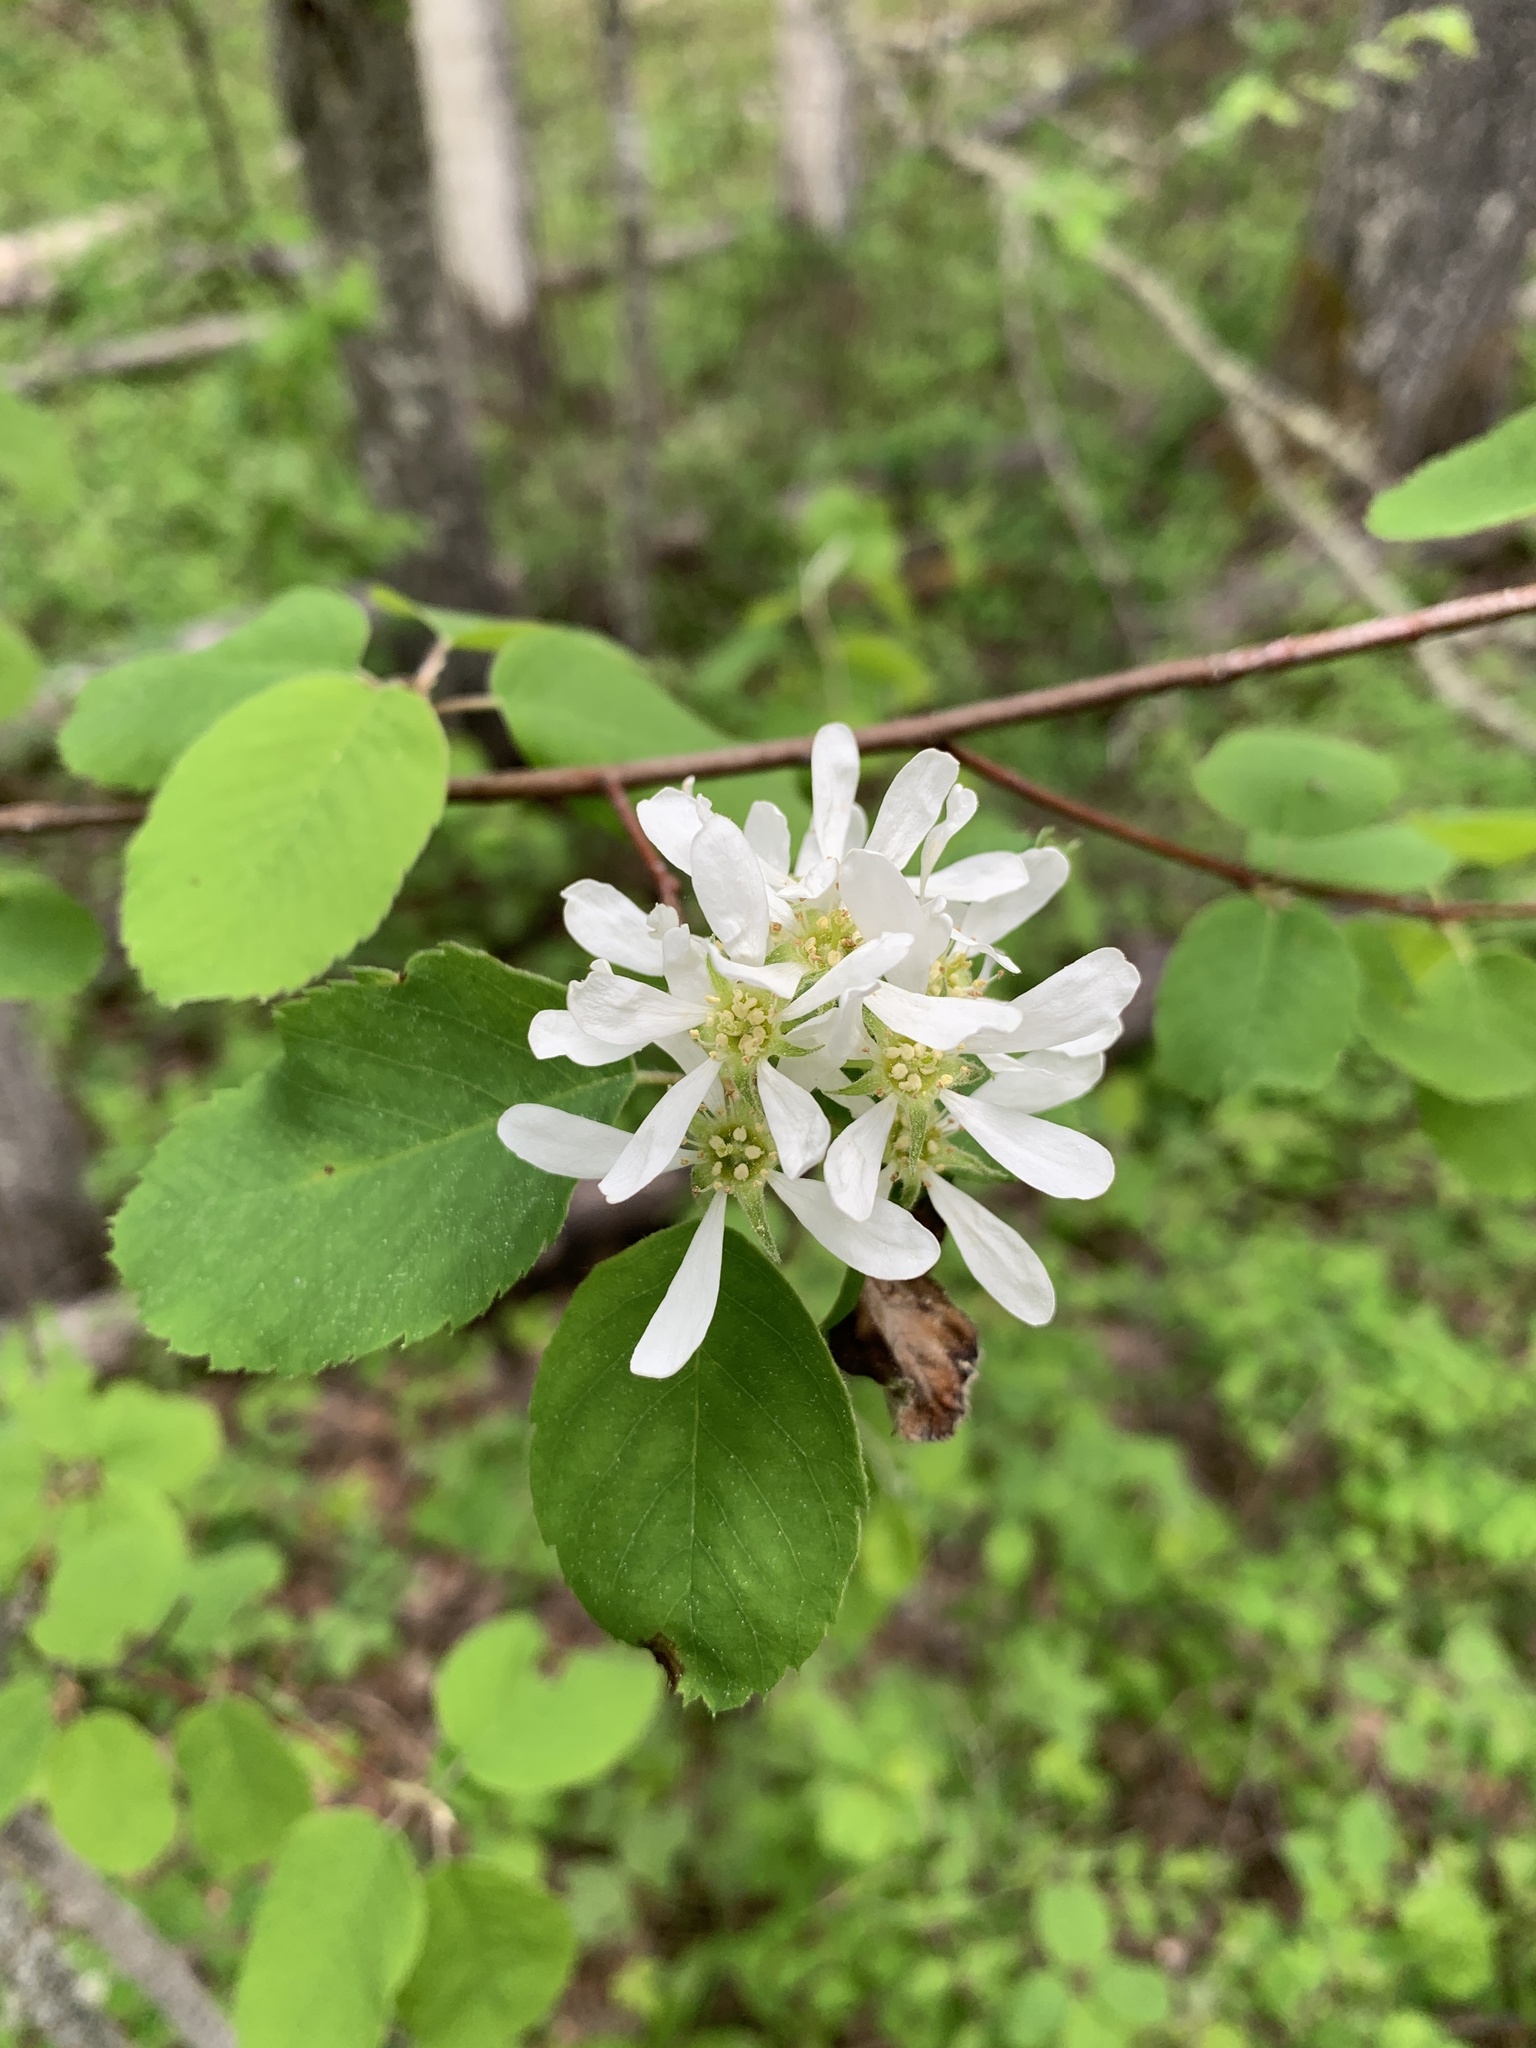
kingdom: Plantae
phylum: Tracheophyta
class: Magnoliopsida
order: Rosales
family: Rosaceae
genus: Amelanchier
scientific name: Amelanchier alnifolia
